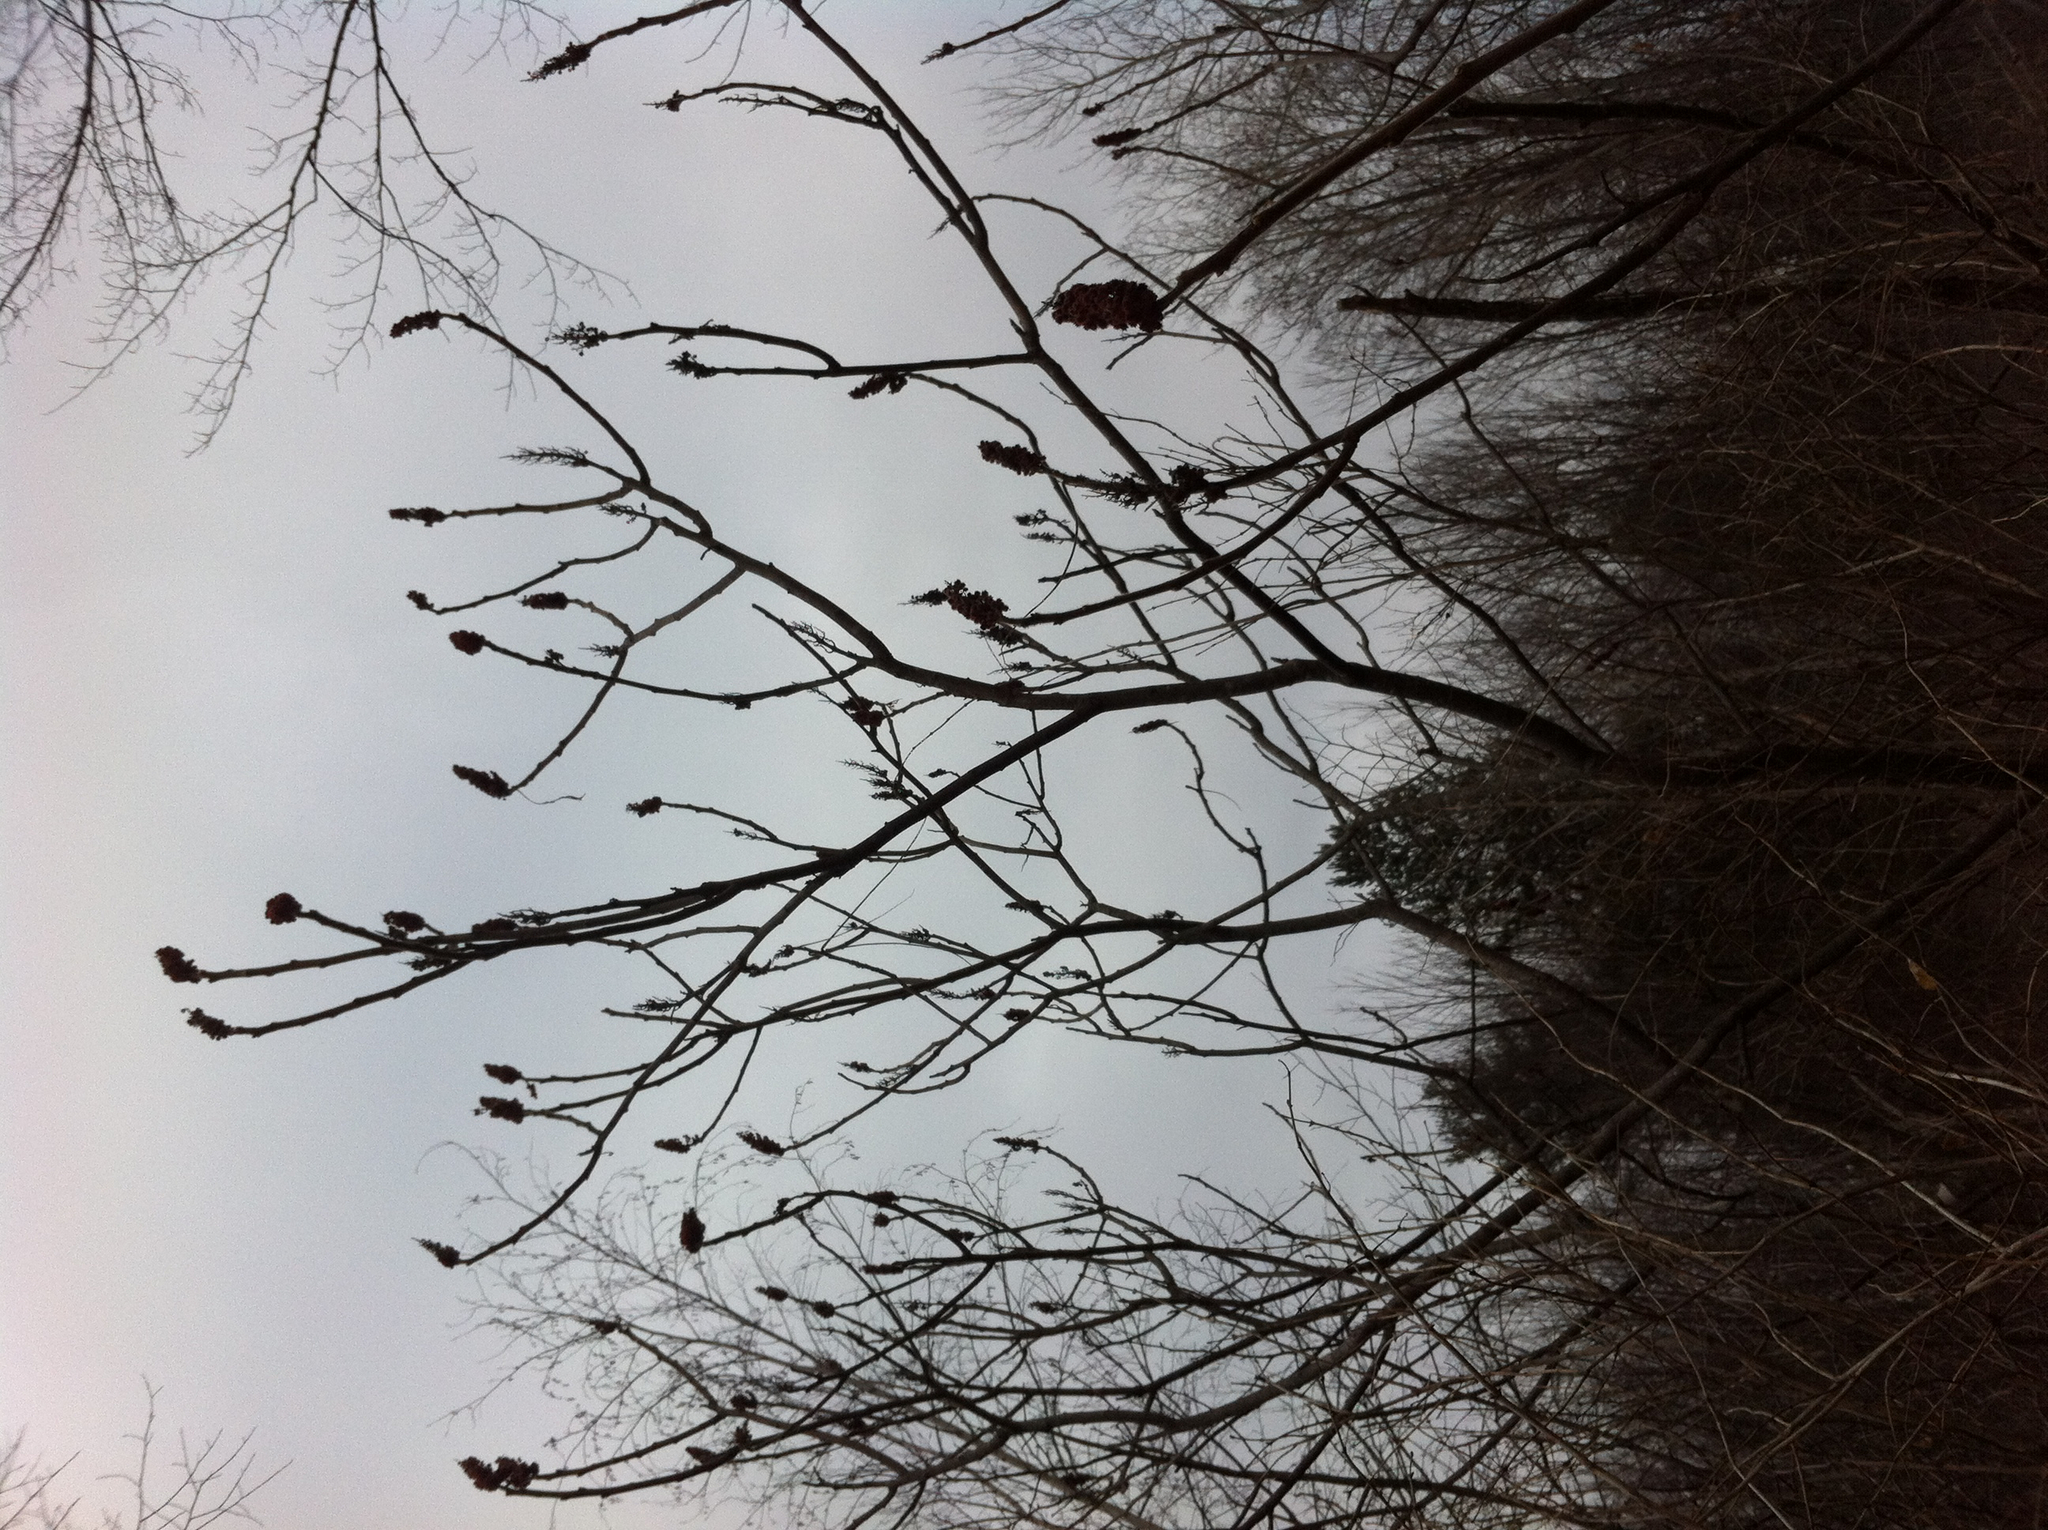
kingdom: Plantae
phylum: Tracheophyta
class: Magnoliopsida
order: Sapindales
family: Anacardiaceae
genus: Rhus
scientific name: Rhus typhina
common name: Staghorn sumac
